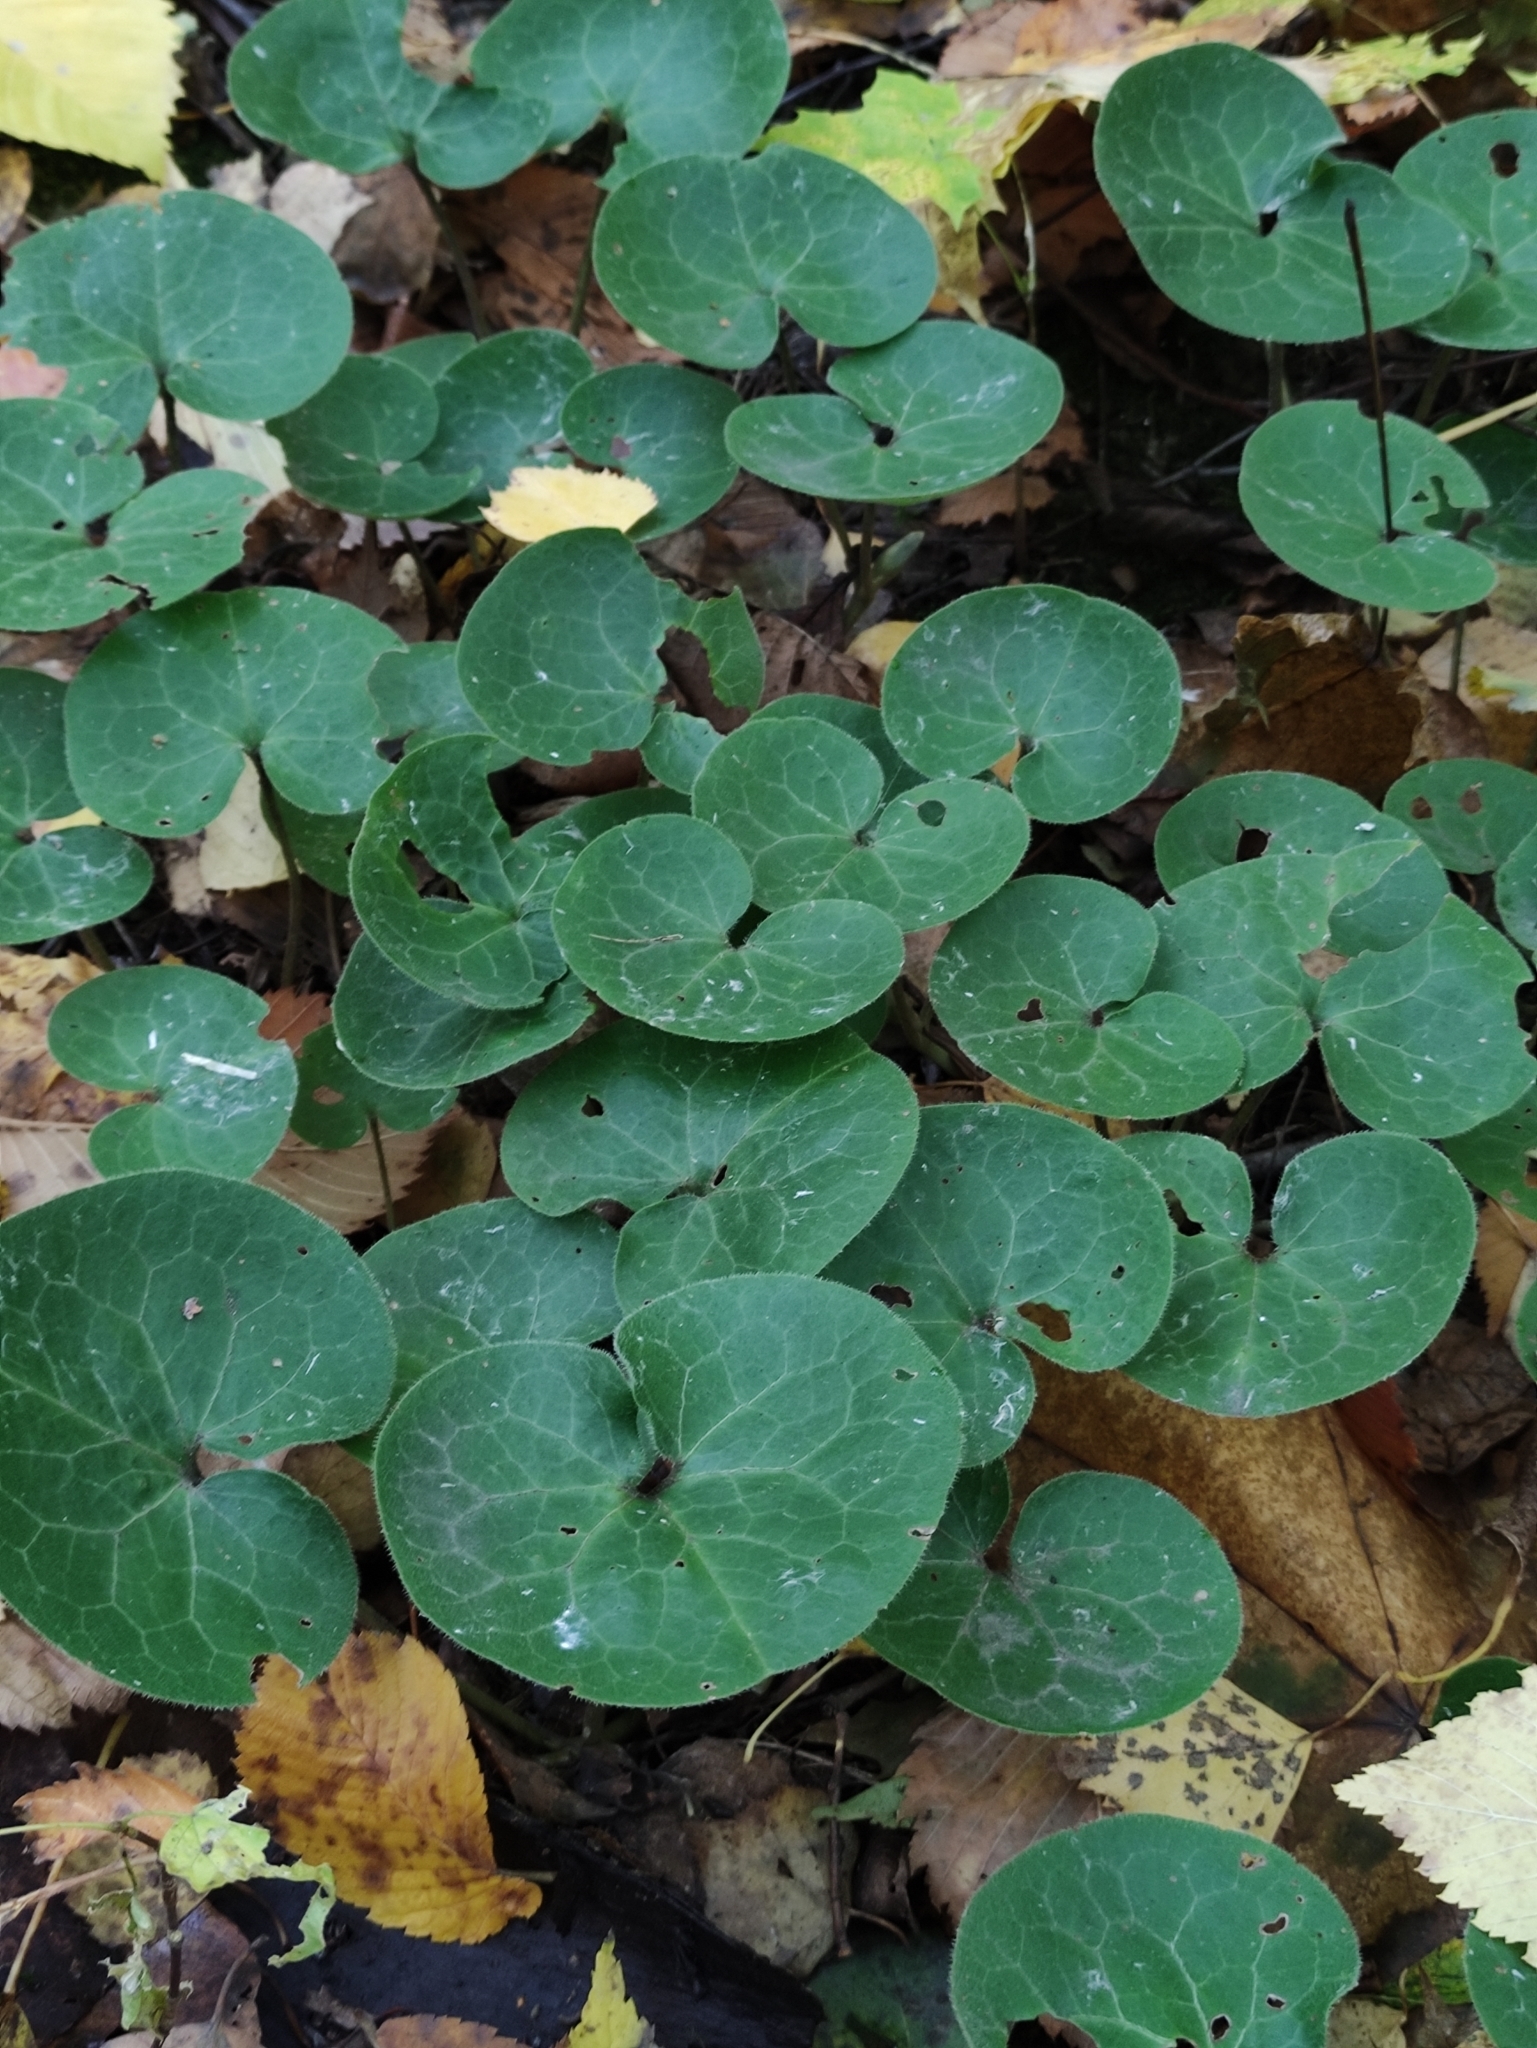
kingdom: Plantae
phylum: Tracheophyta
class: Magnoliopsida
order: Piperales
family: Aristolochiaceae
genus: Asarum
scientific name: Asarum europaeum
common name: Asarabacca
